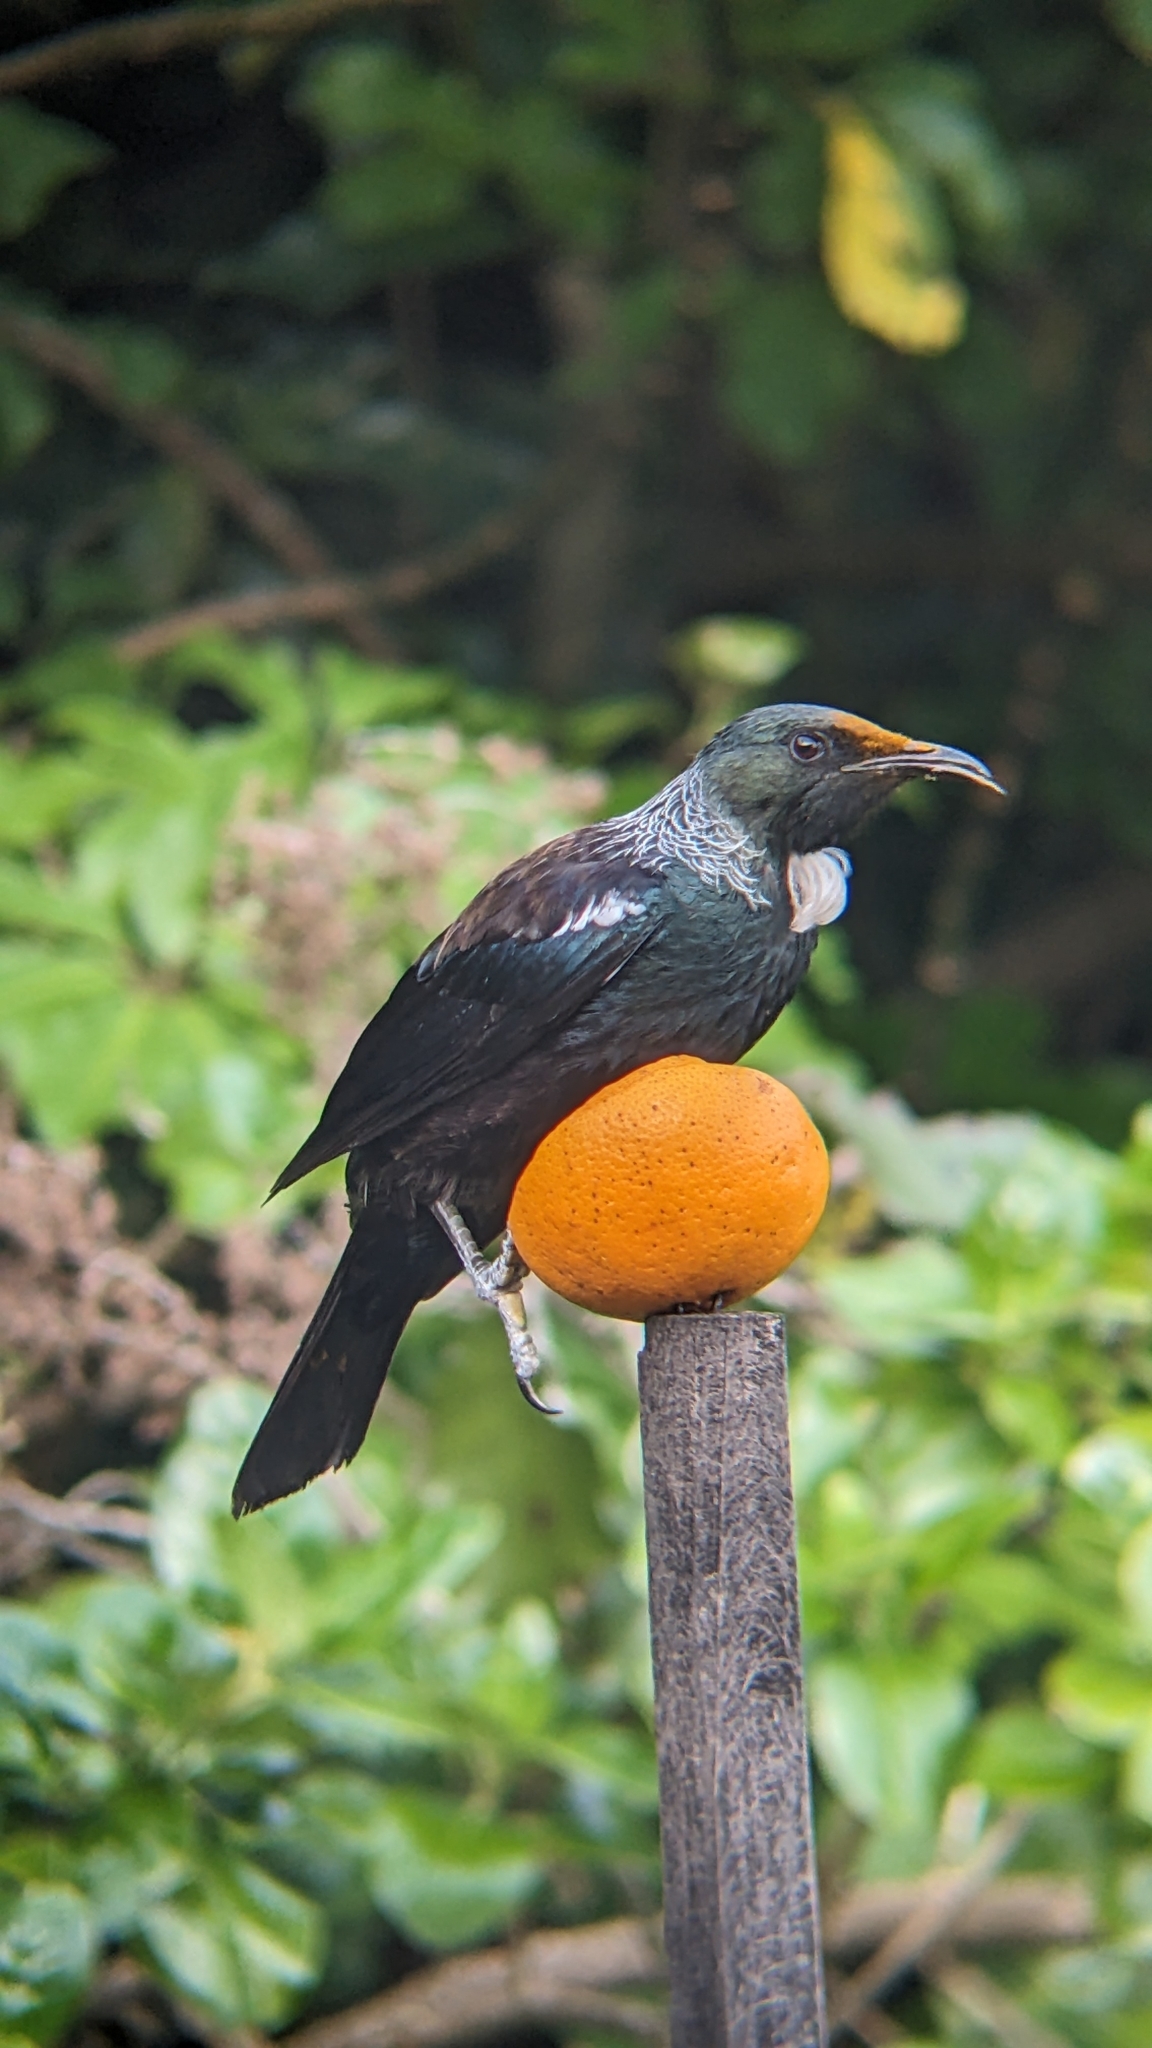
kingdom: Animalia
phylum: Chordata
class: Aves
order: Passeriformes
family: Meliphagidae
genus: Prosthemadera
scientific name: Prosthemadera novaeseelandiae
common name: Tui
